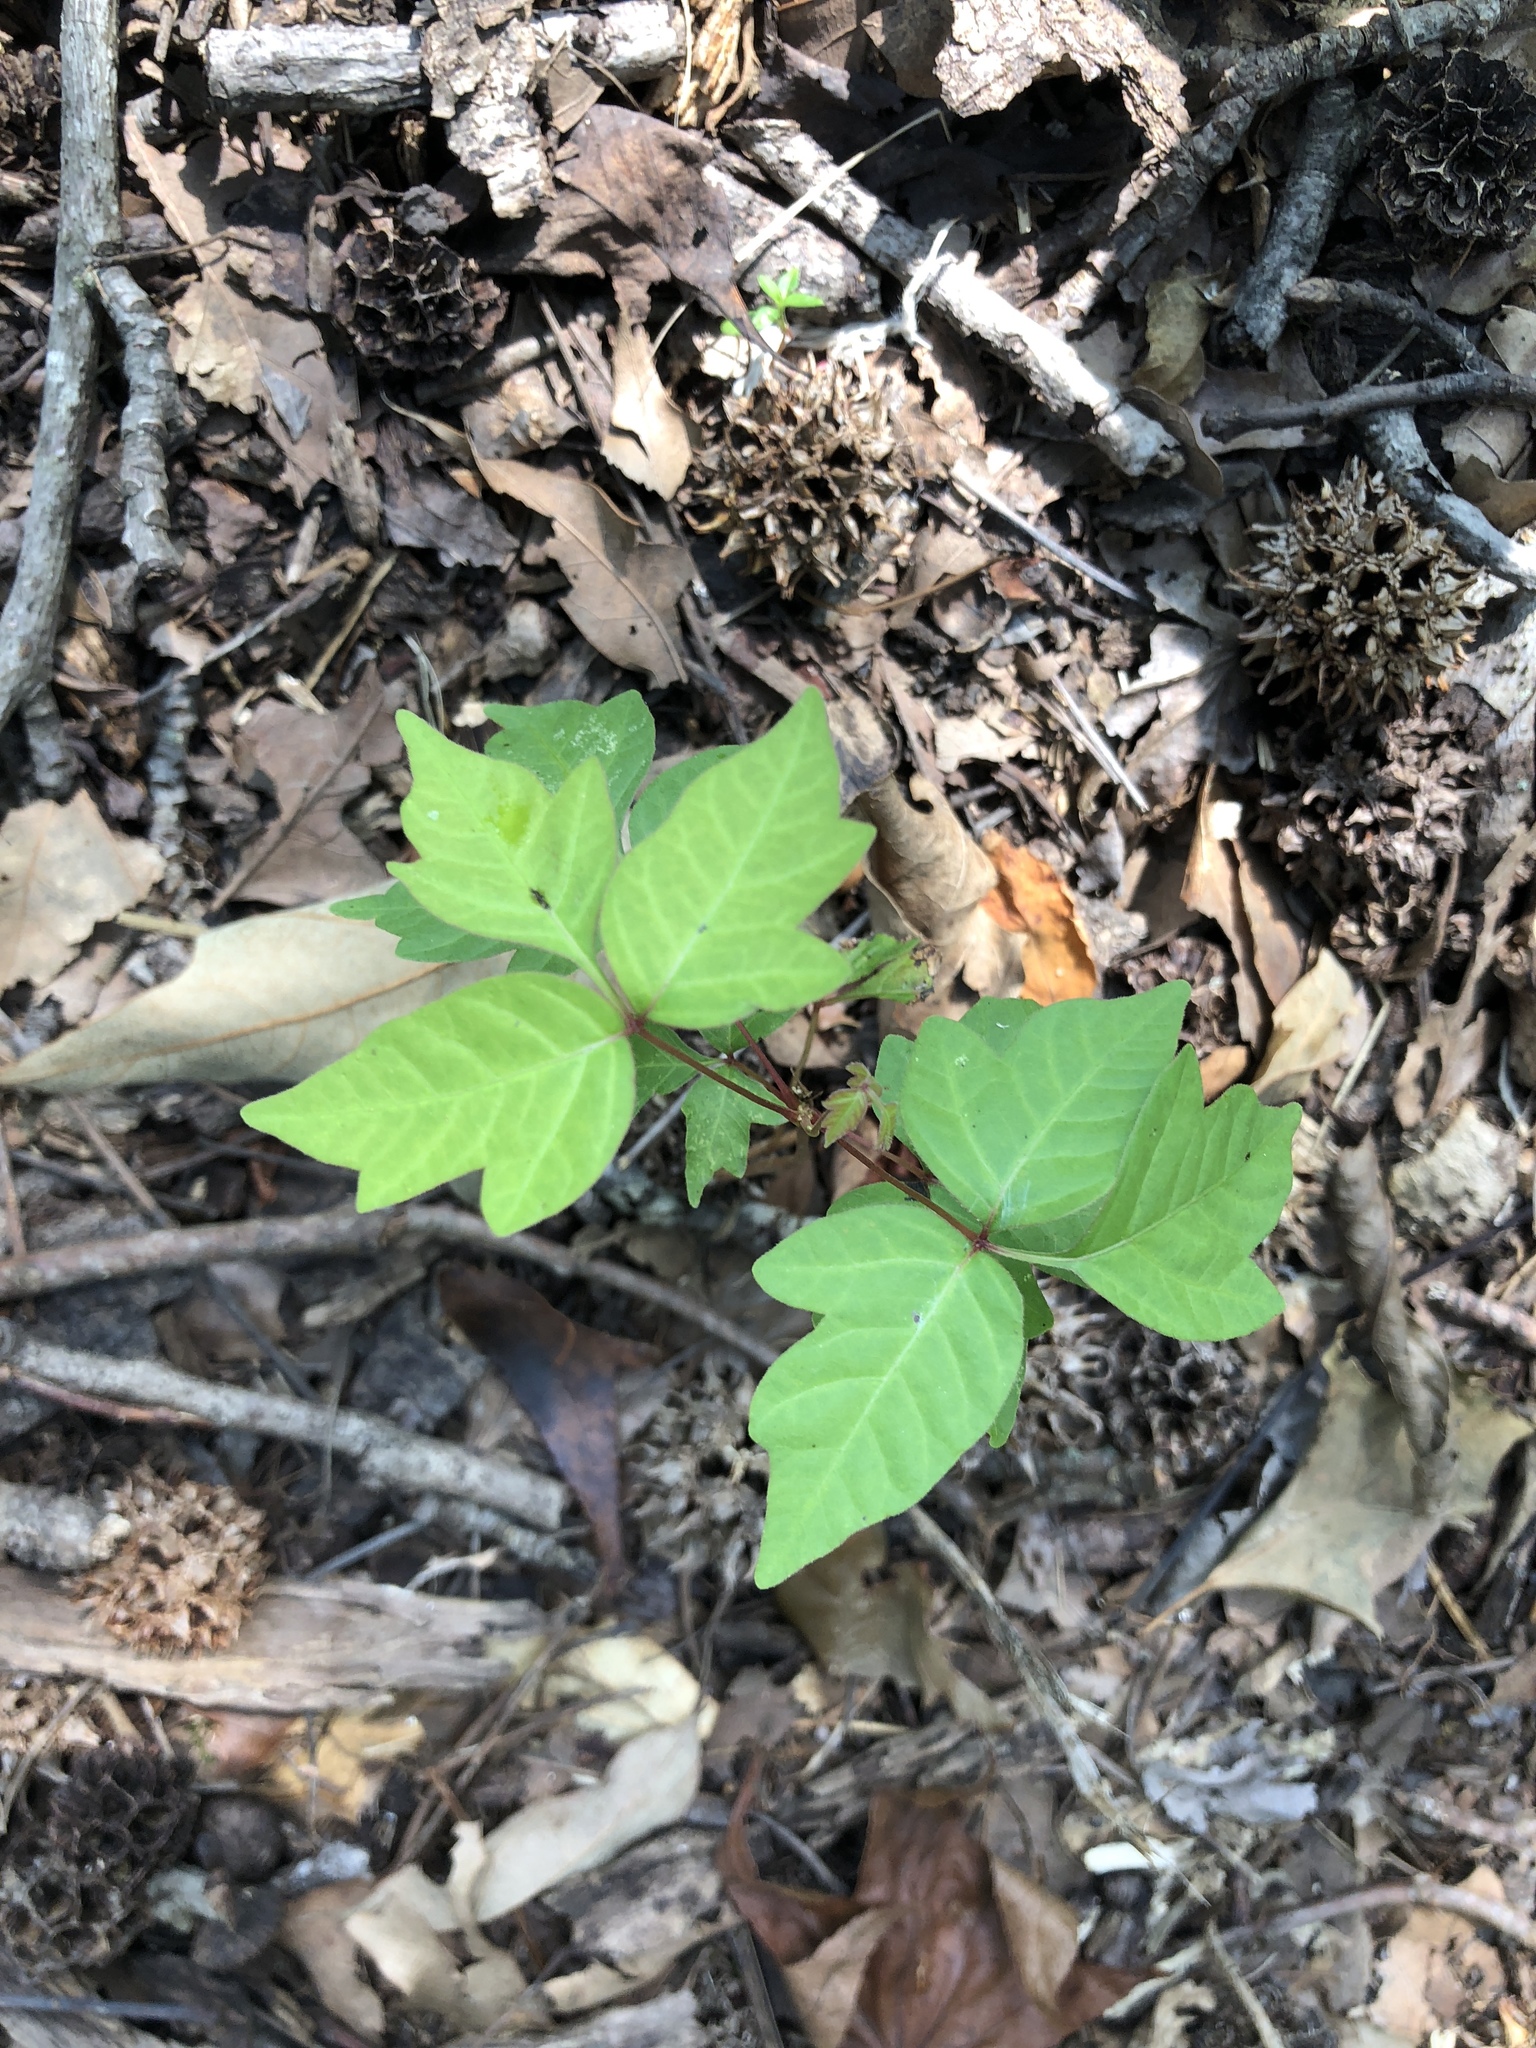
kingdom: Plantae
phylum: Tracheophyta
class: Magnoliopsida
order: Sapindales
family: Anacardiaceae
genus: Toxicodendron
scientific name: Toxicodendron radicans
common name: Poison ivy
